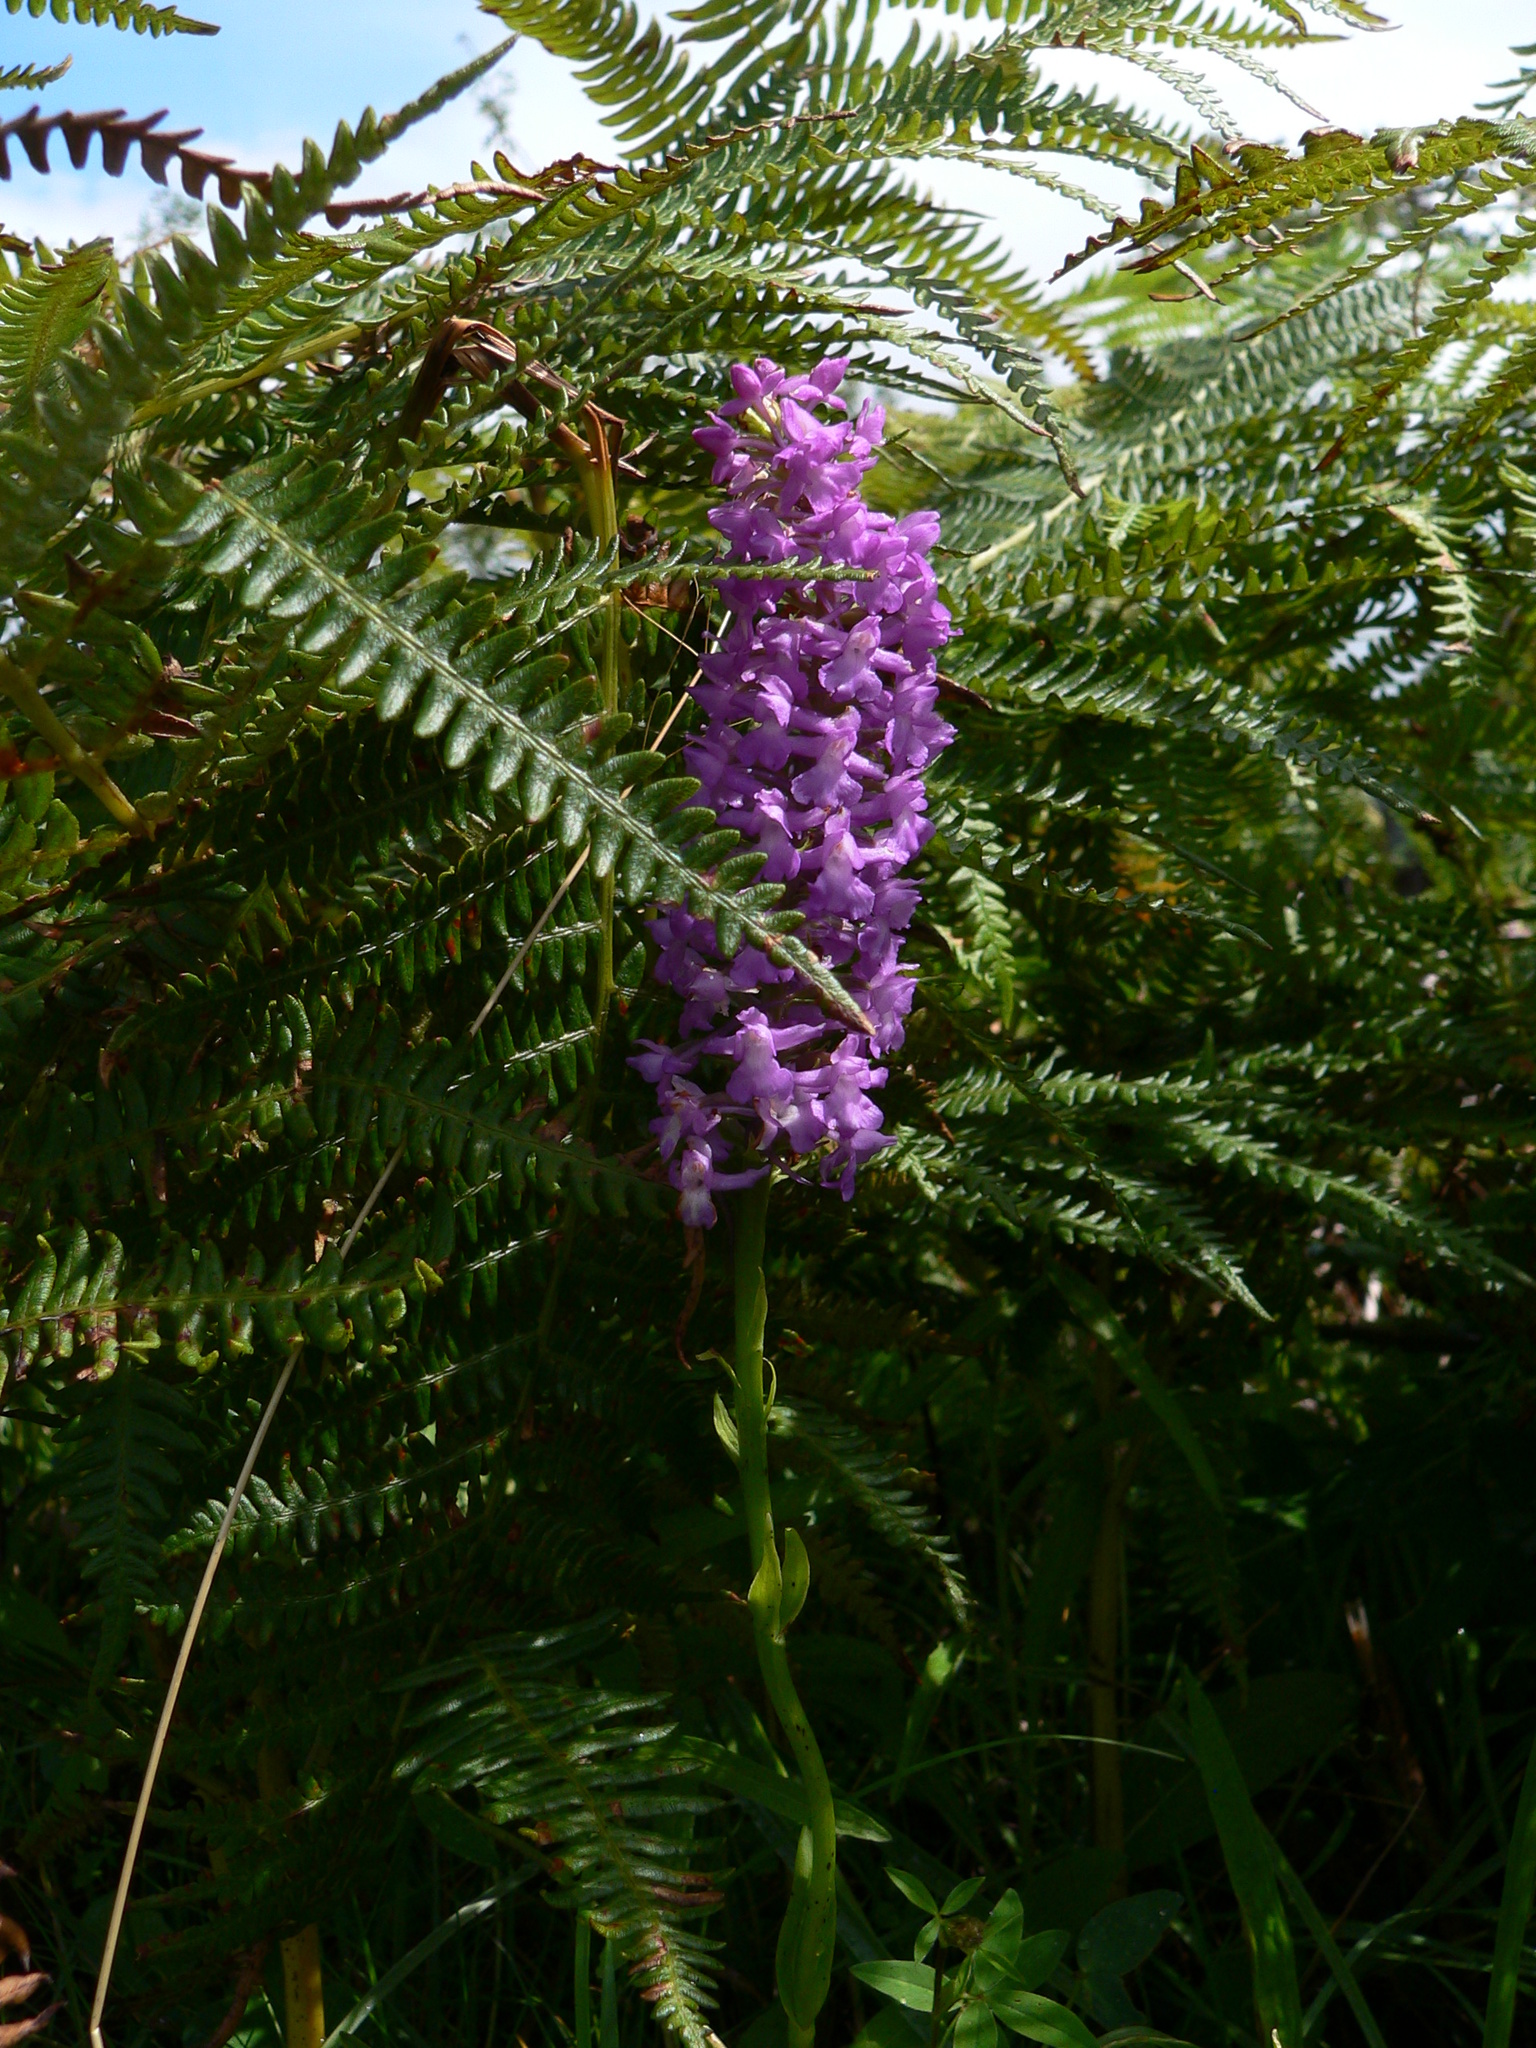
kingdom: Plantae
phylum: Tracheophyta
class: Liliopsida
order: Asparagales
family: Orchidaceae
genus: Gymnadenia
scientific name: Gymnadenia densiflora
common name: Marsh fragrant-orchid
